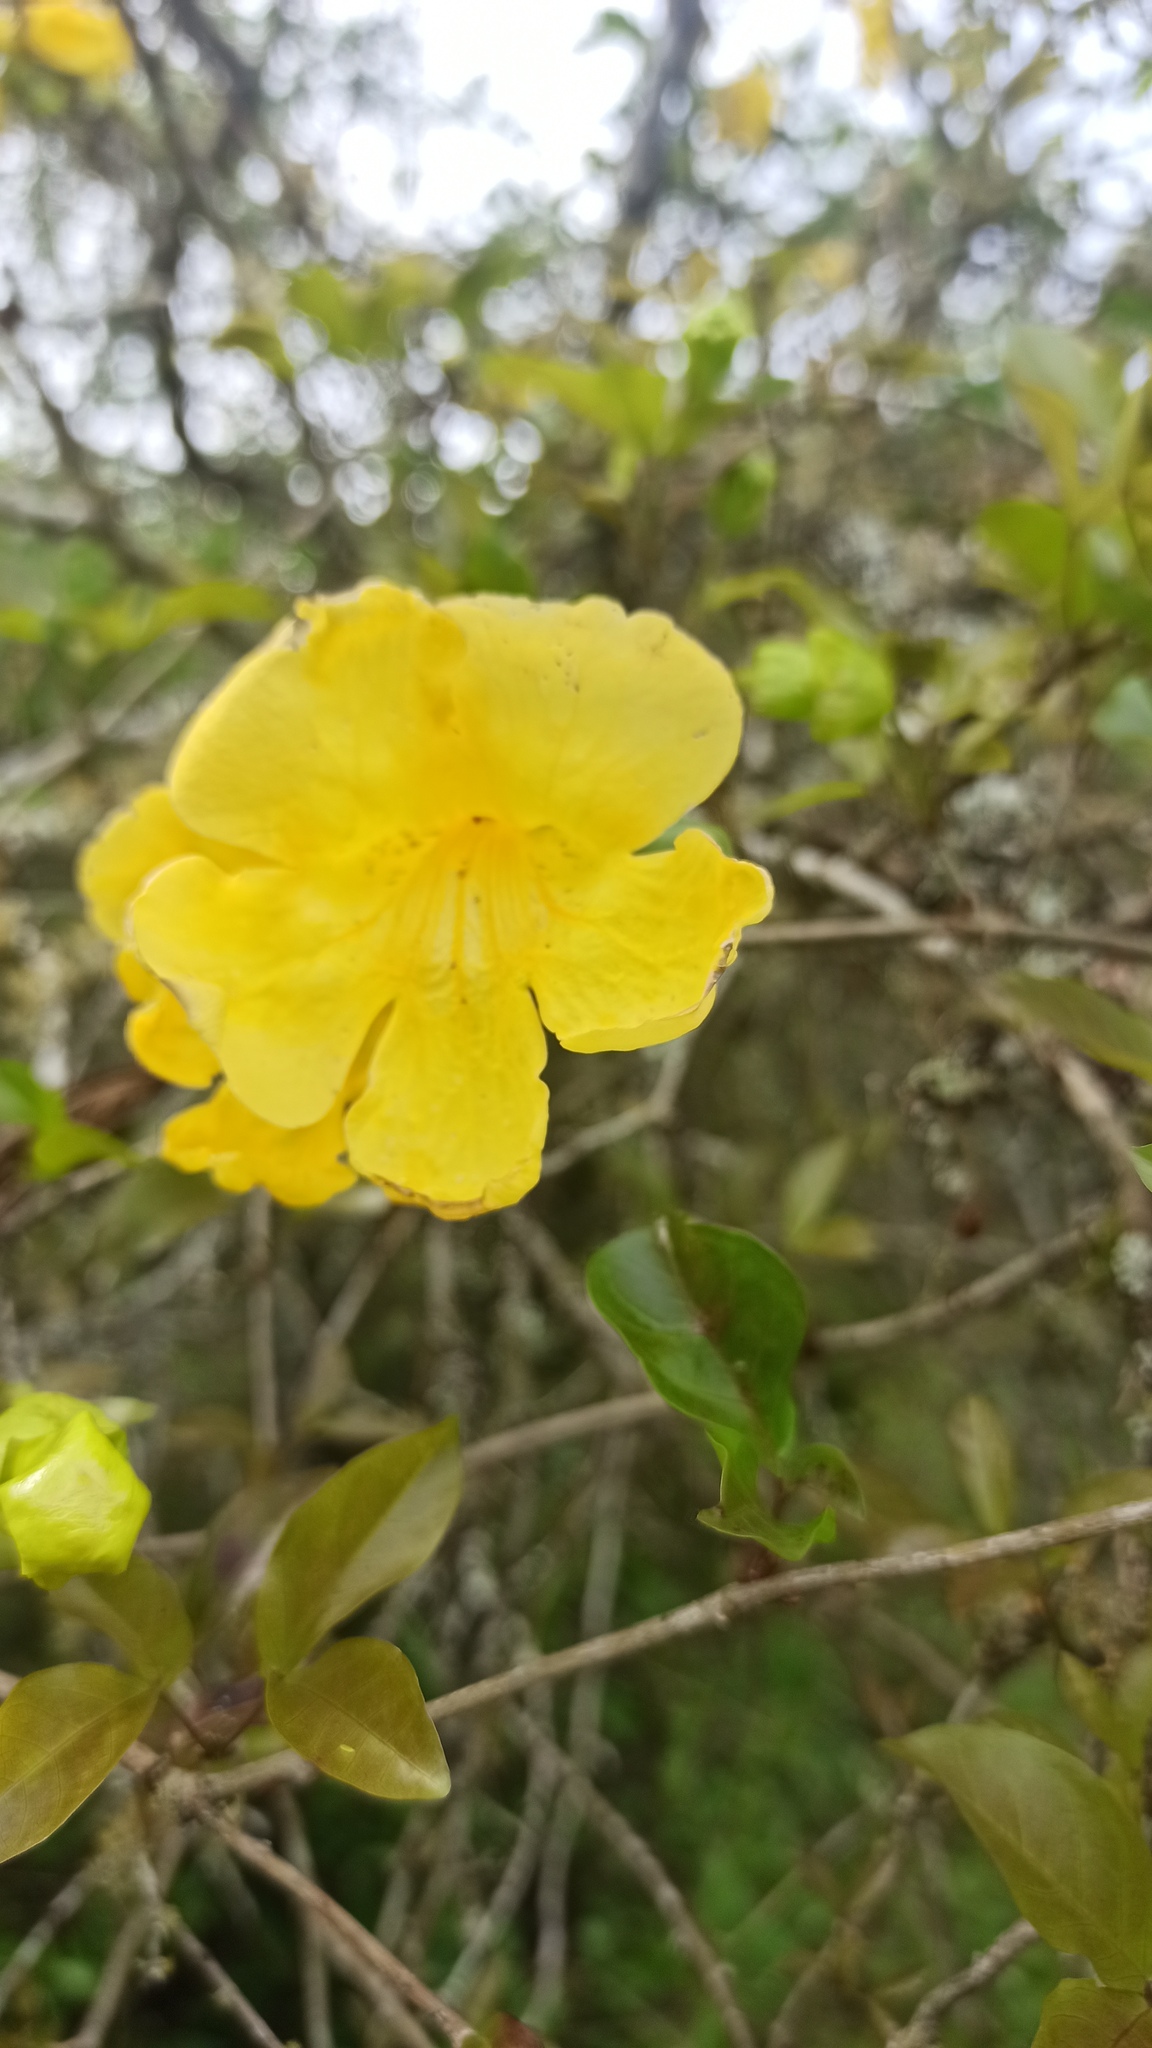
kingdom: Plantae
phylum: Tracheophyta
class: Magnoliopsida
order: Lamiales
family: Bignoniaceae
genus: Dolichandra
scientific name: Dolichandra unguis-cati
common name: Catclaw vine
